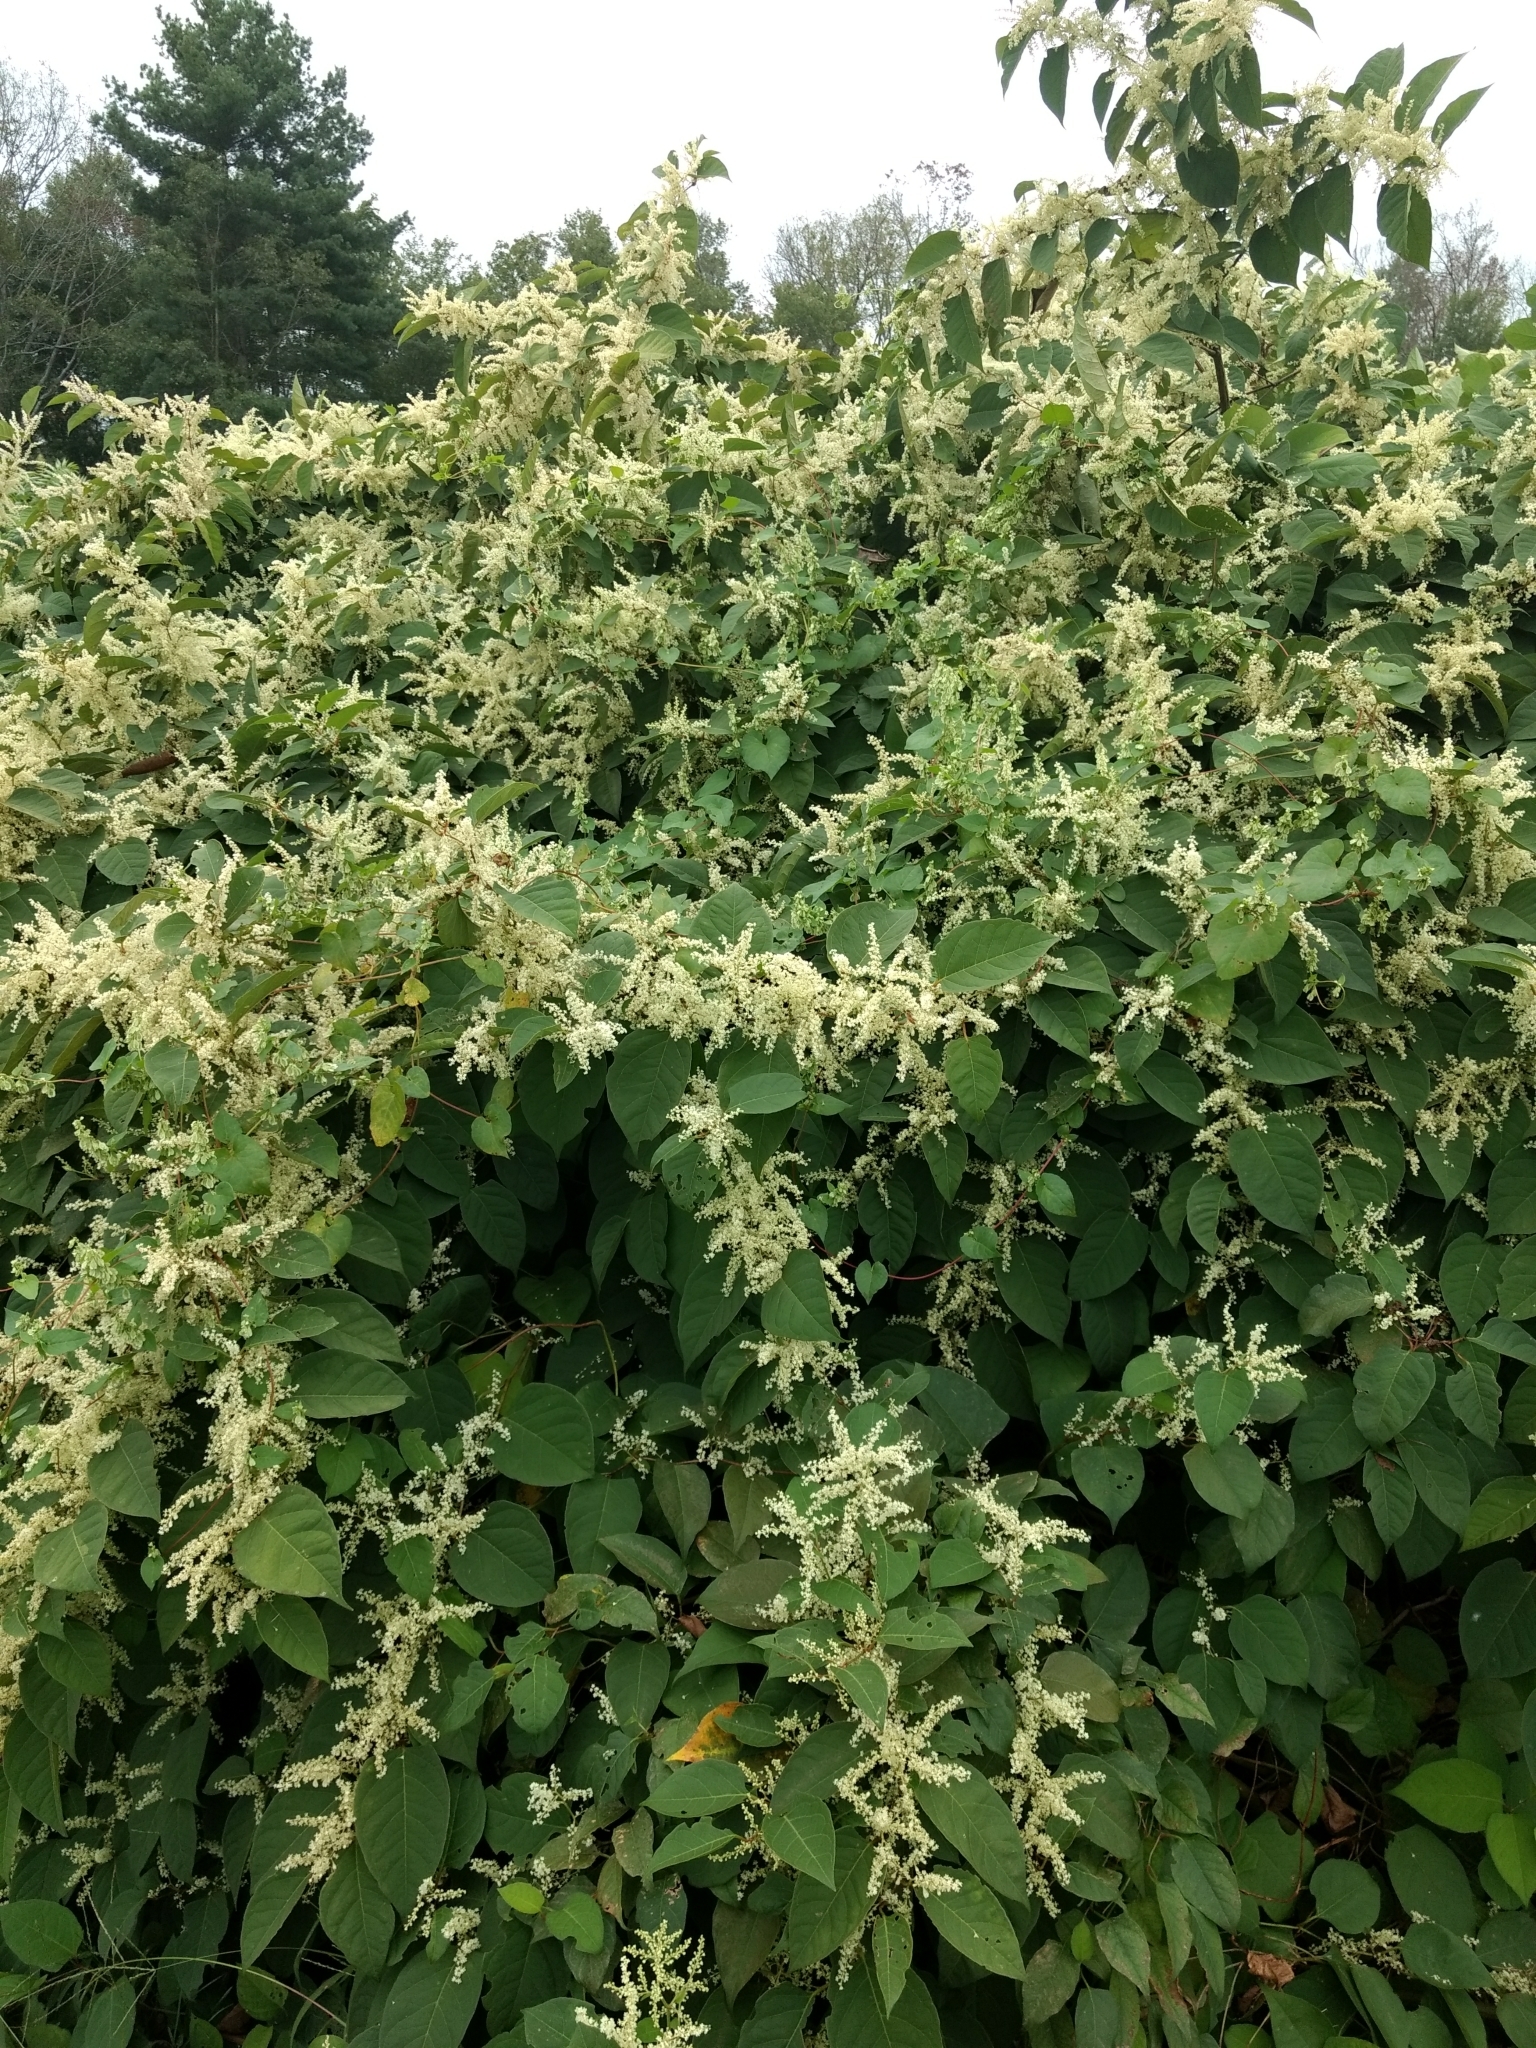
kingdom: Plantae
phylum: Tracheophyta
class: Magnoliopsida
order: Caryophyllales
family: Polygonaceae
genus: Reynoutria
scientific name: Reynoutria japonica
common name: Japanese knotweed
